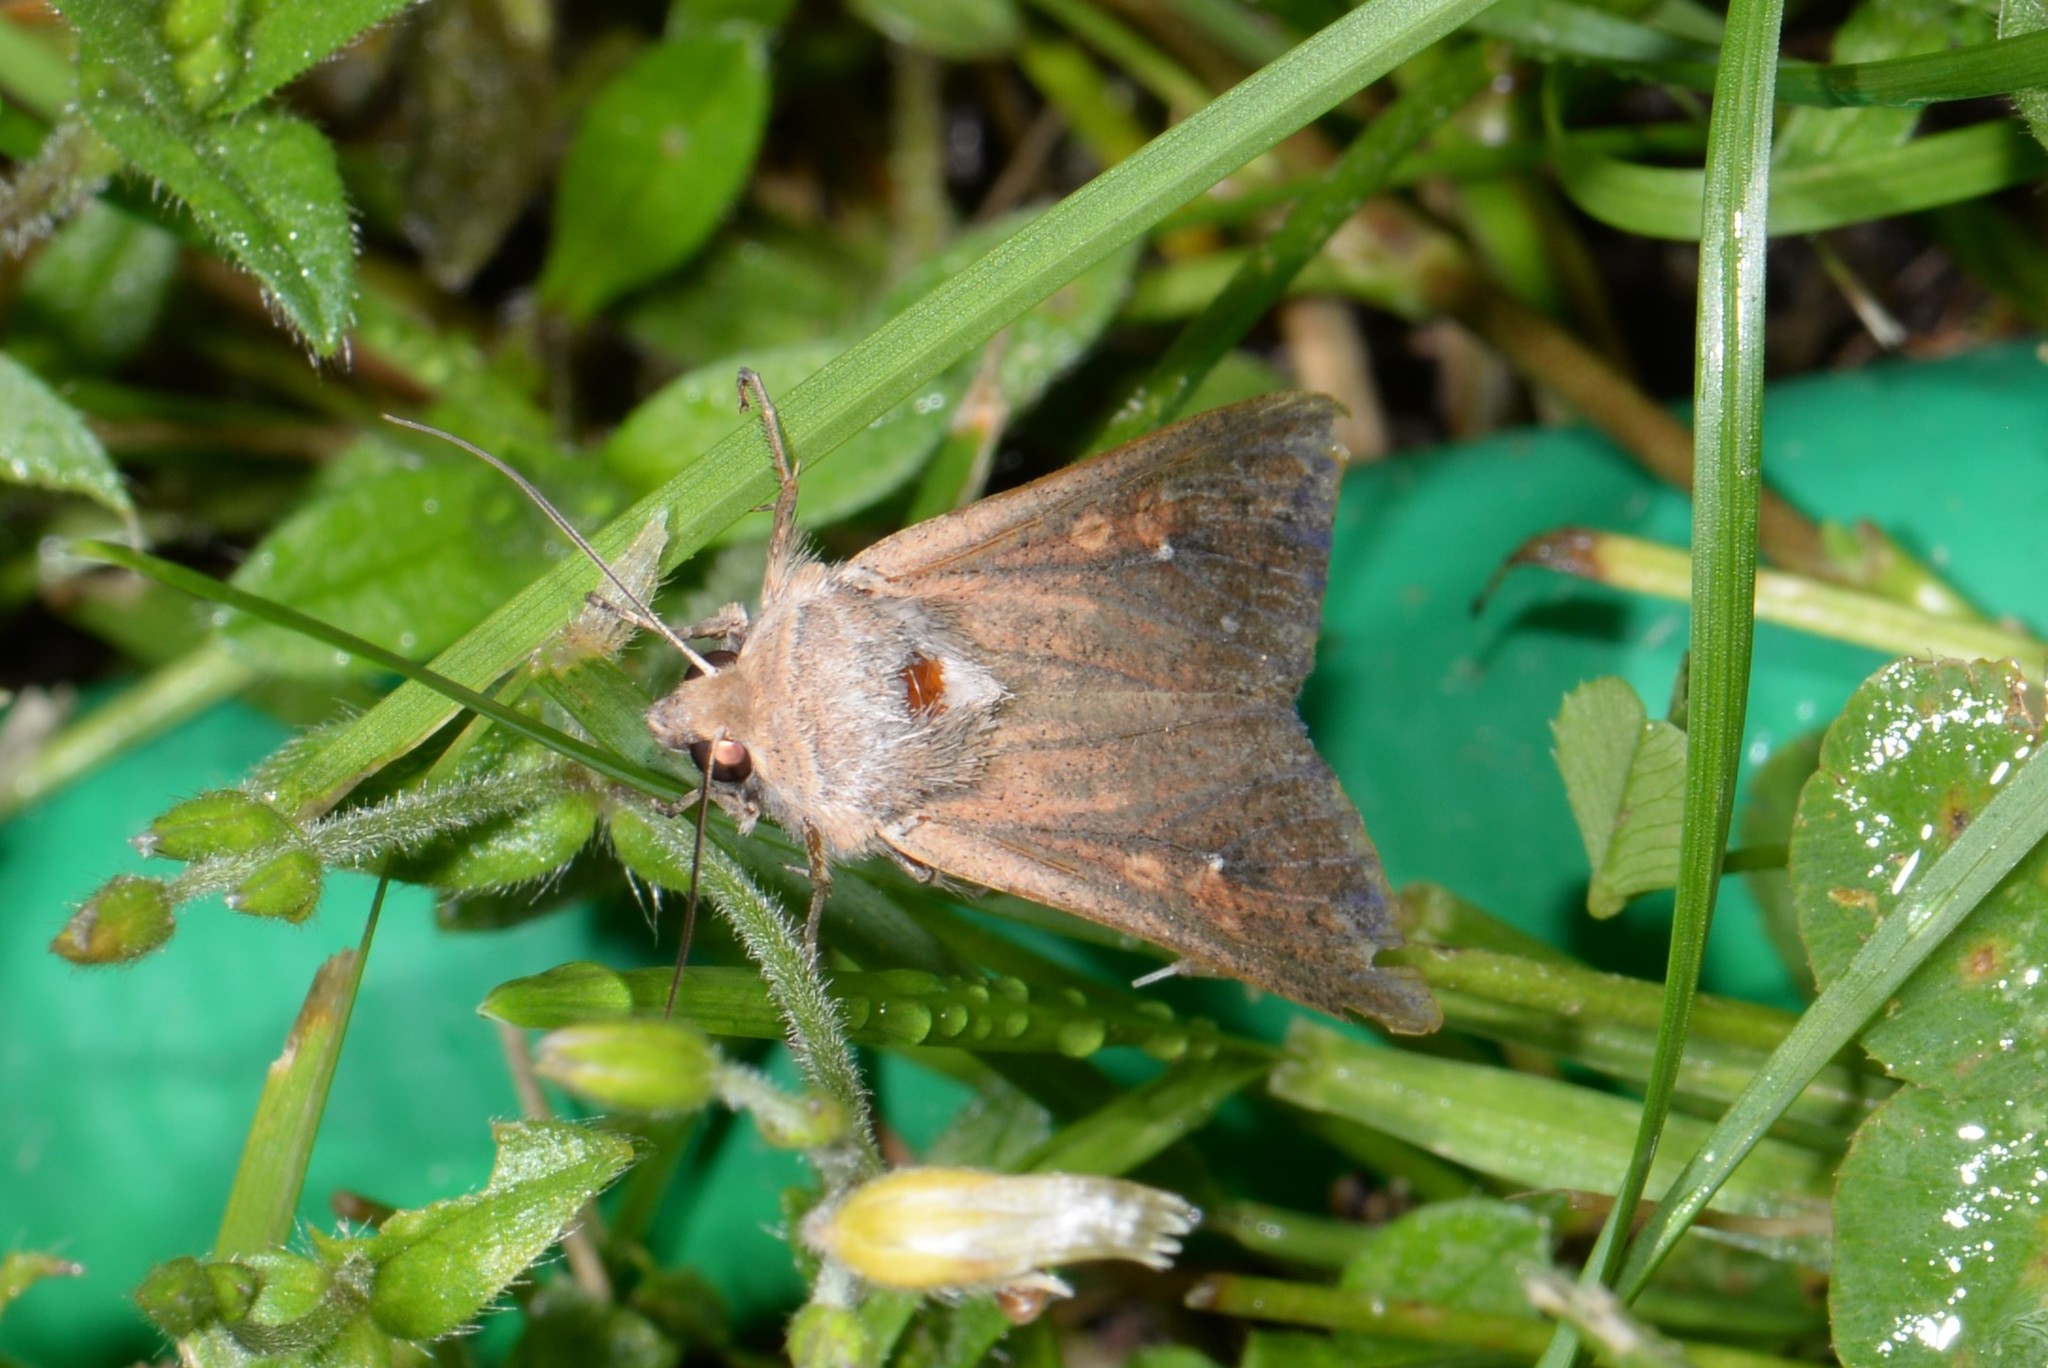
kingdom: Animalia
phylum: Arthropoda
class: Insecta
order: Lepidoptera
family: Noctuidae
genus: Mythimna
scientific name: Mythimna unipuncta
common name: White-speck
